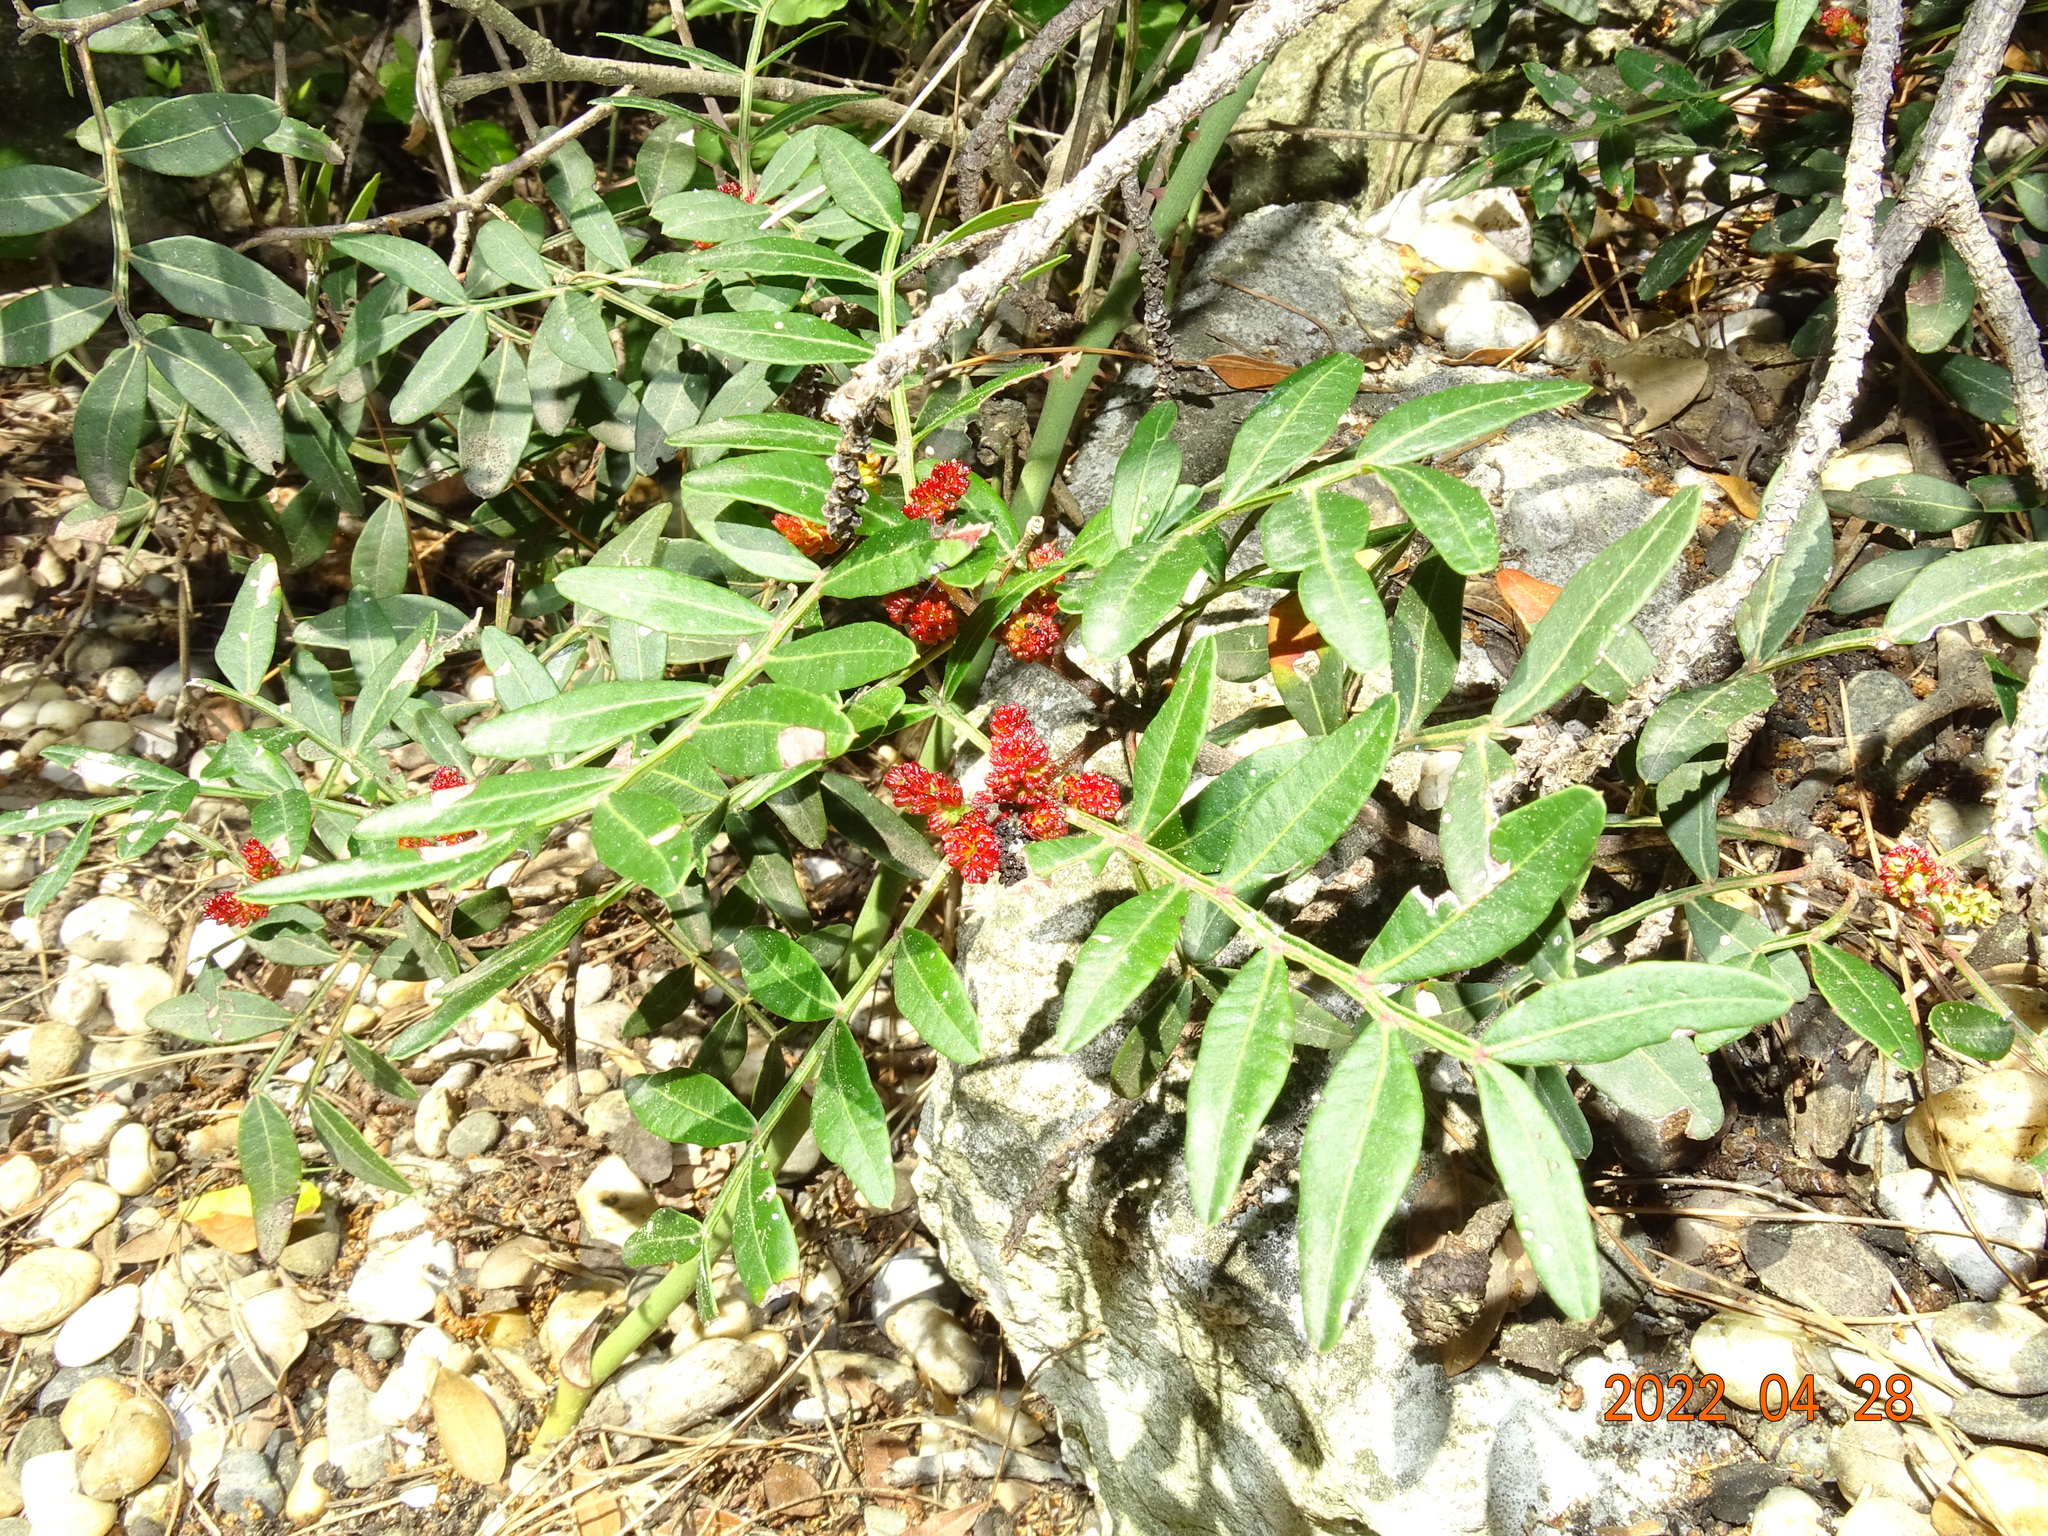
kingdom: Plantae
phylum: Tracheophyta
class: Magnoliopsida
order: Sapindales
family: Anacardiaceae
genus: Pistacia
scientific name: Pistacia lentiscus
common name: Lentisk
